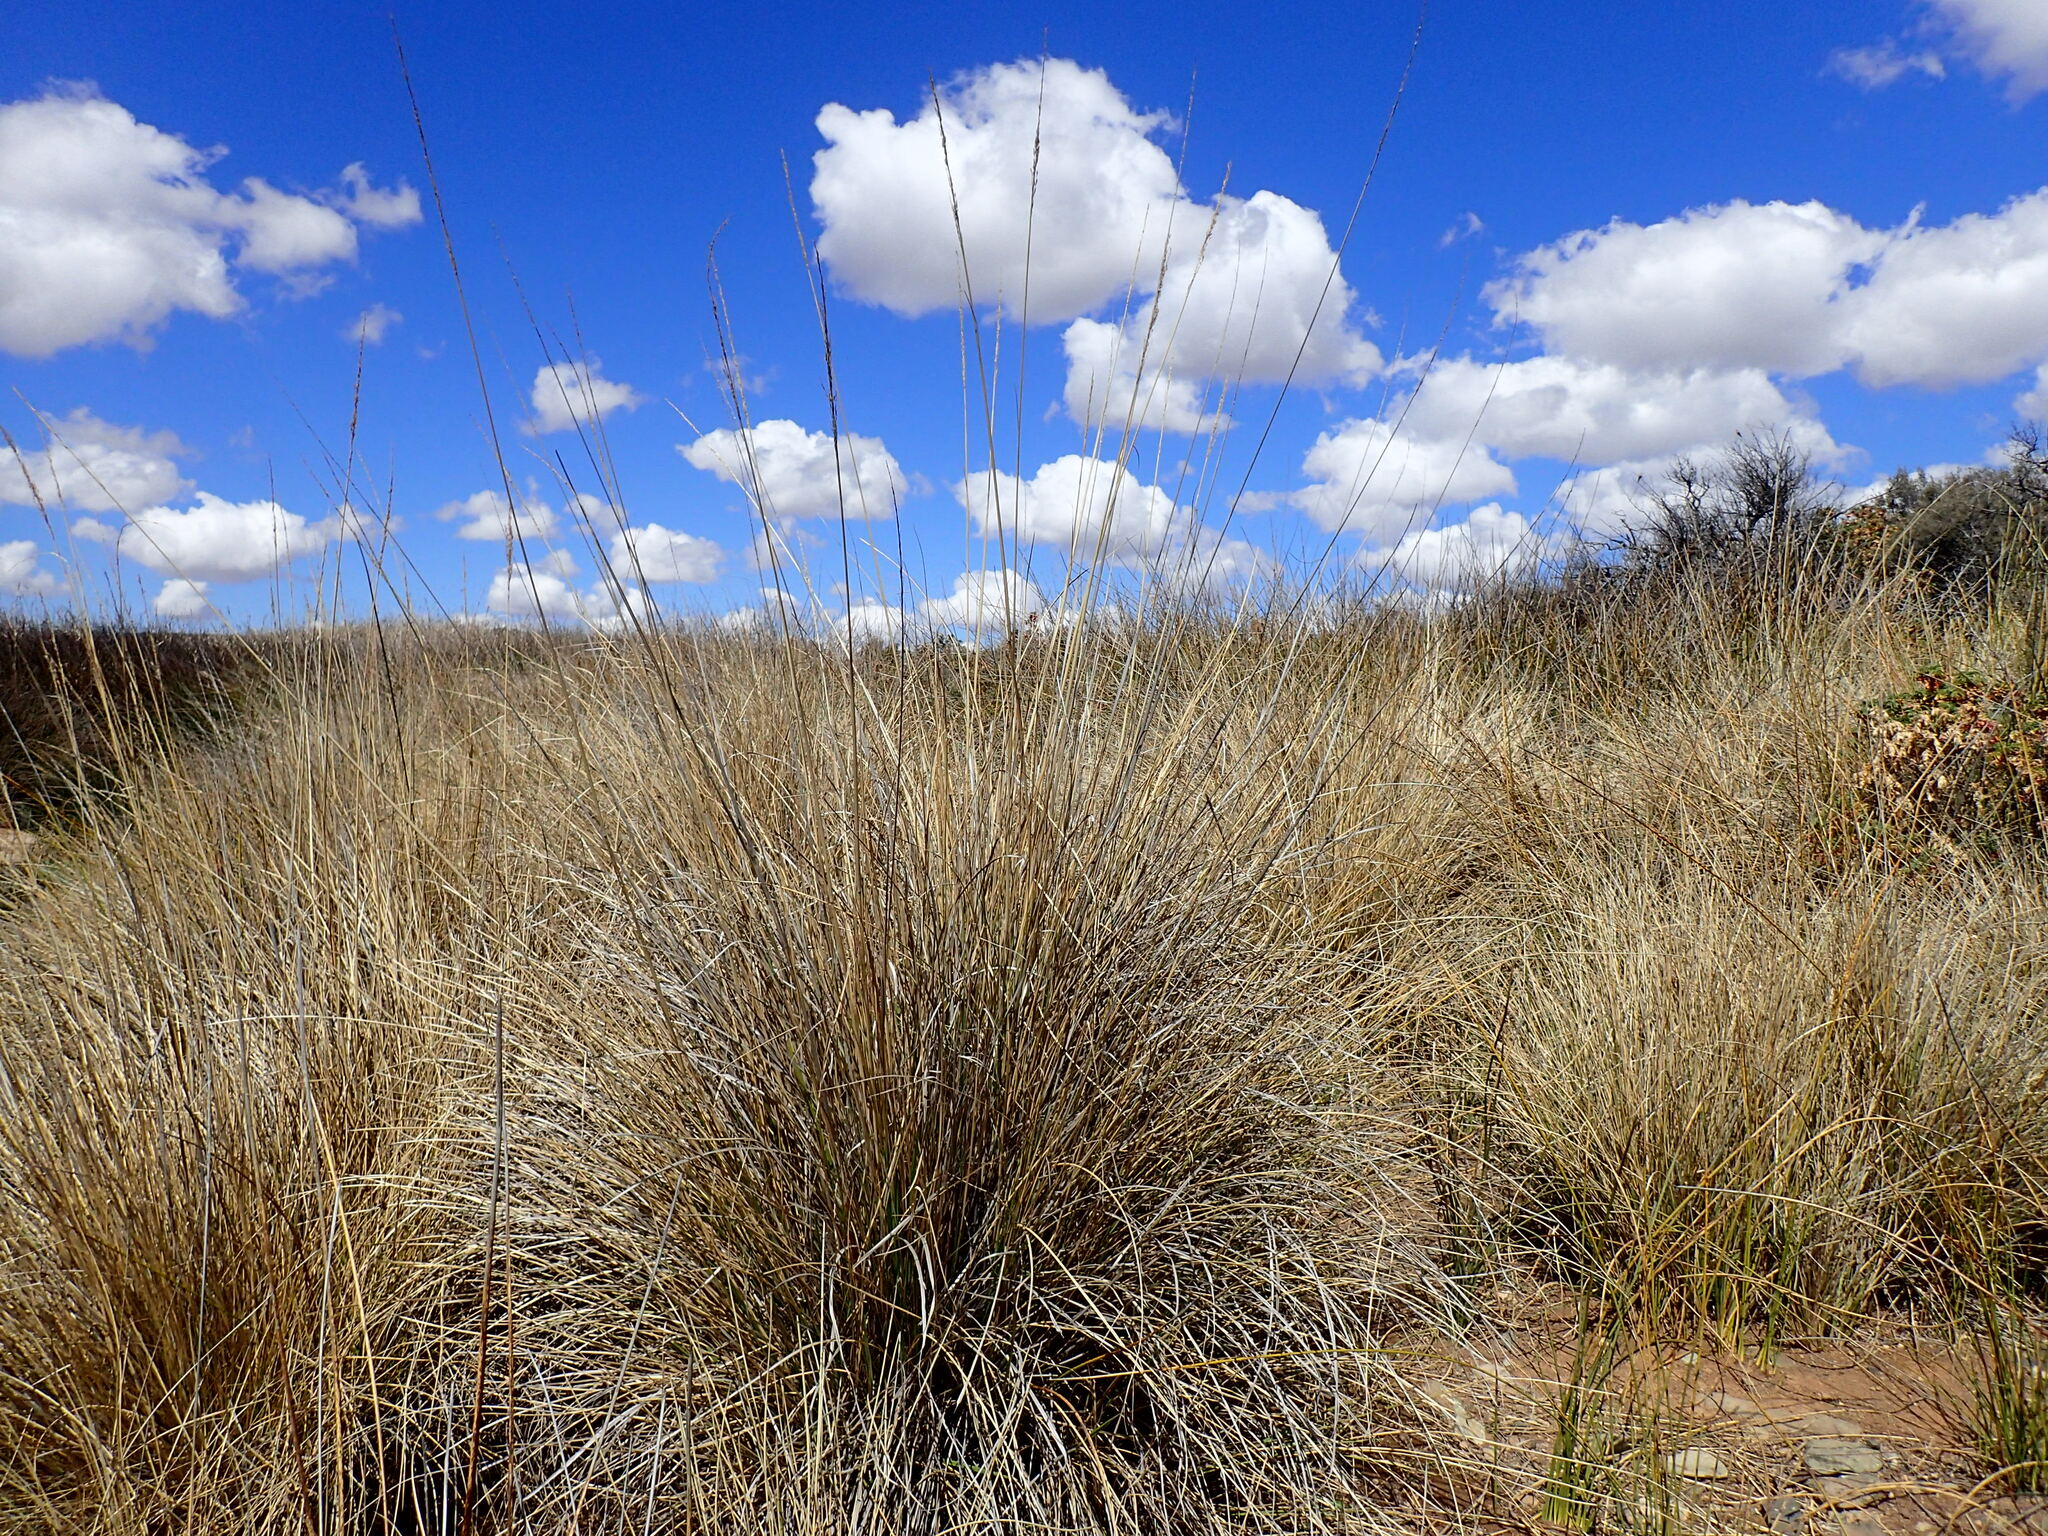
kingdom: Plantae
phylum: Tracheophyta
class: Liliopsida
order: Poales
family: Poaceae
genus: Miscanthus
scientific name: Miscanthus ecklonii
